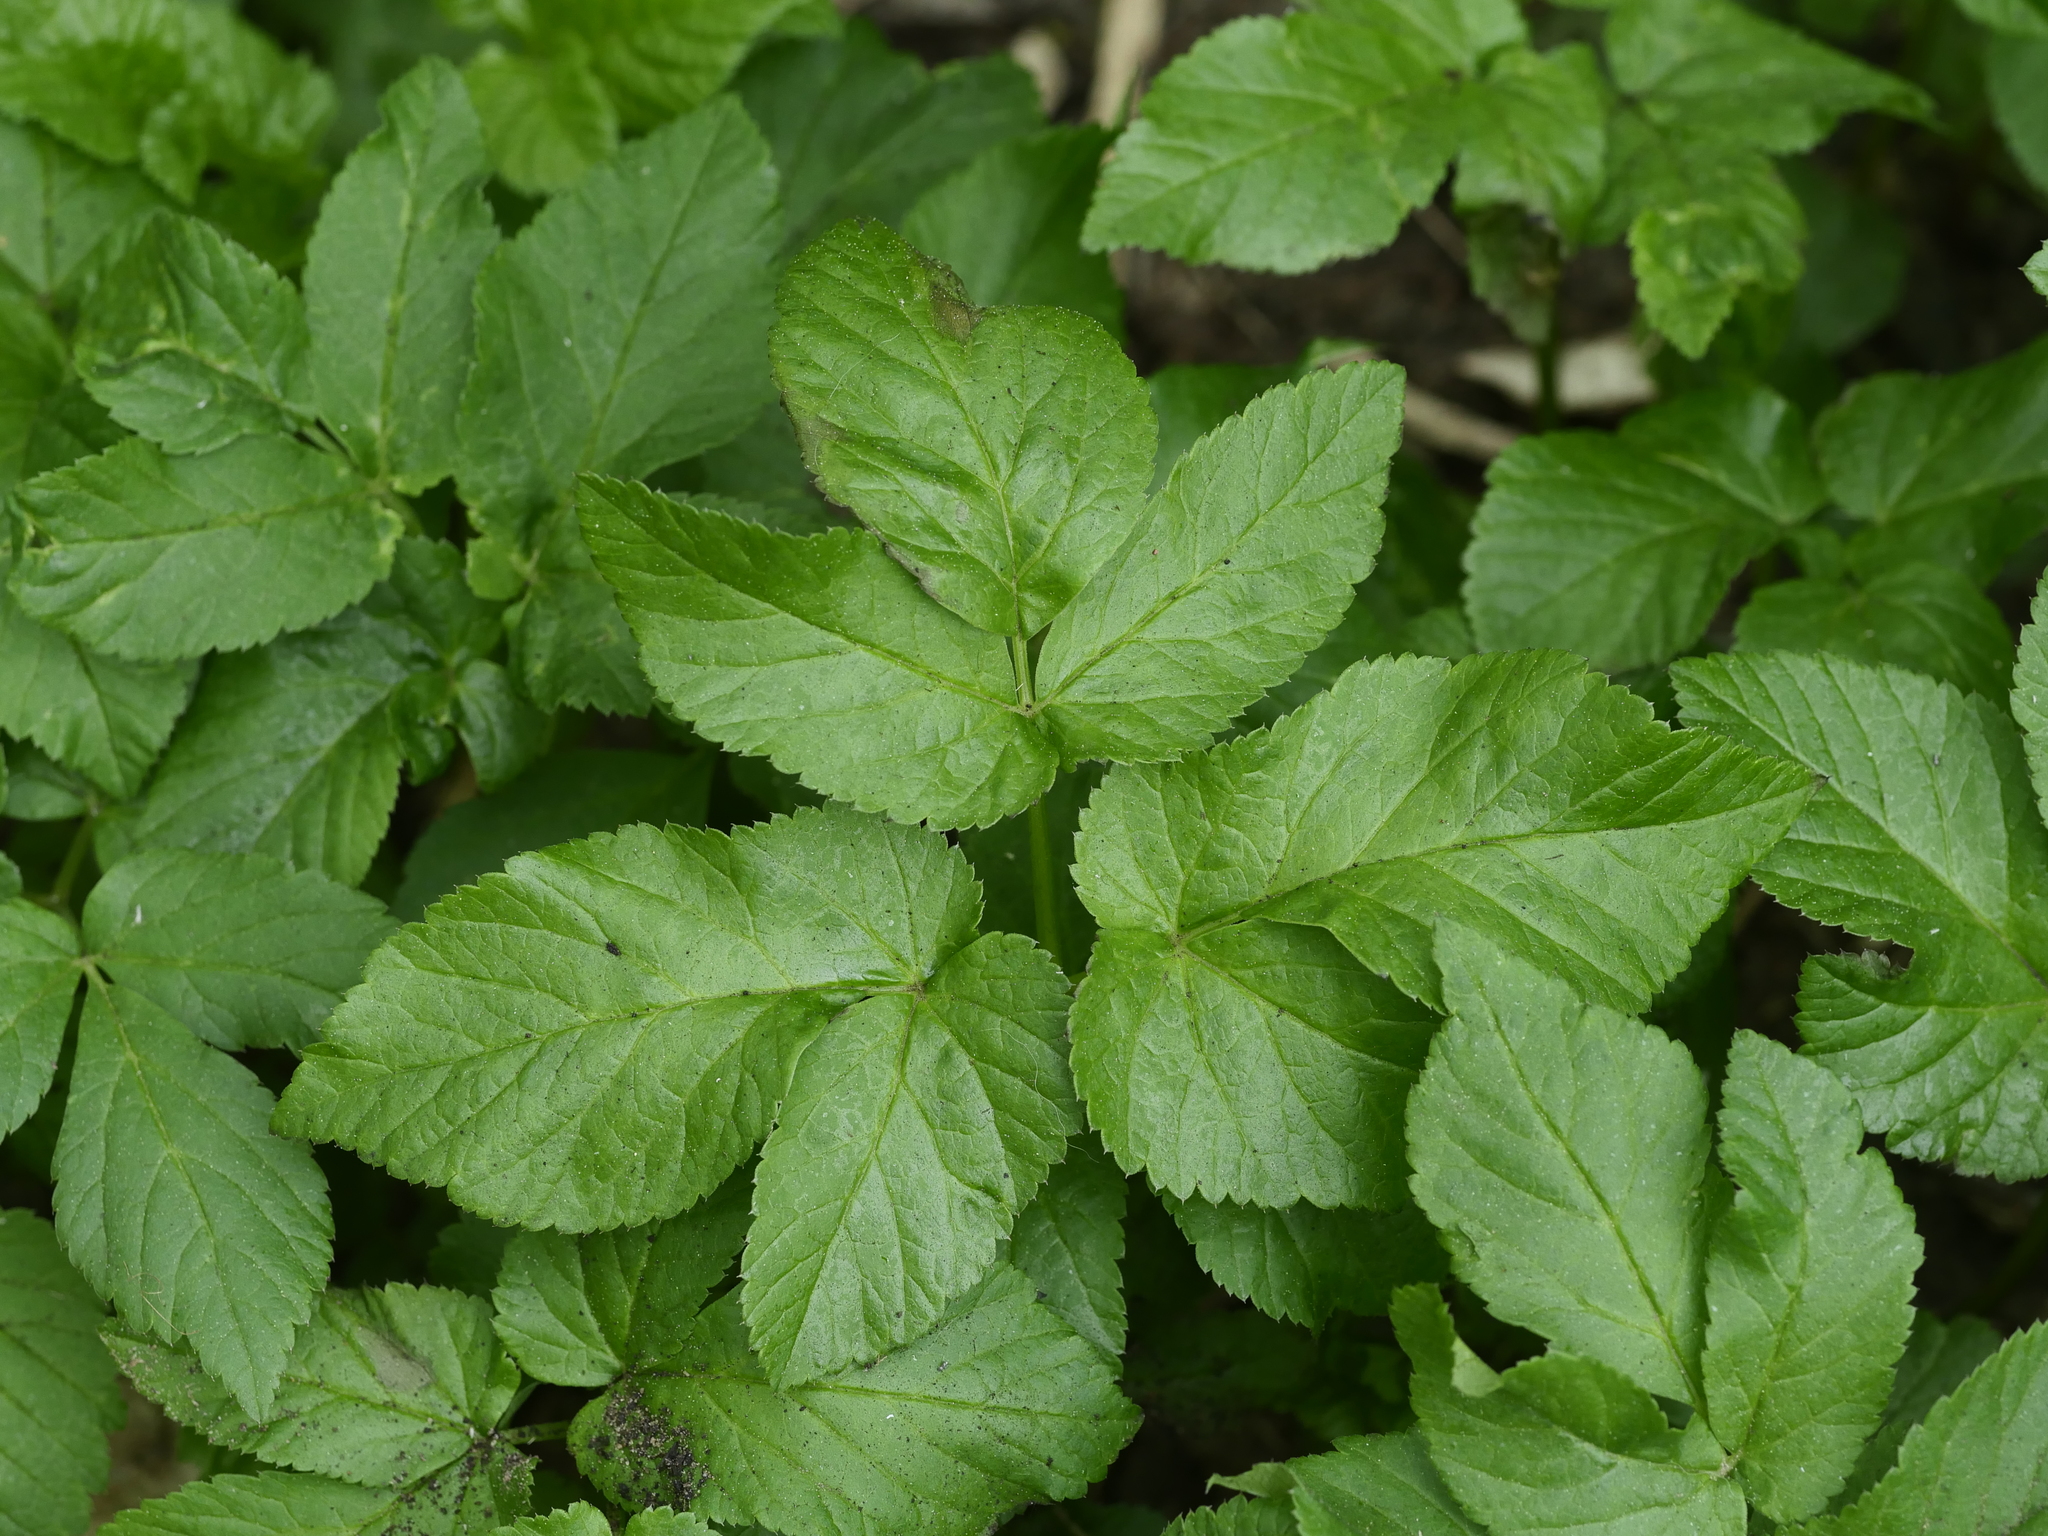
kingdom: Plantae
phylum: Tracheophyta
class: Magnoliopsida
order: Apiales
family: Apiaceae
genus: Aegopodium
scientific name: Aegopodium podagraria
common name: Ground-elder
